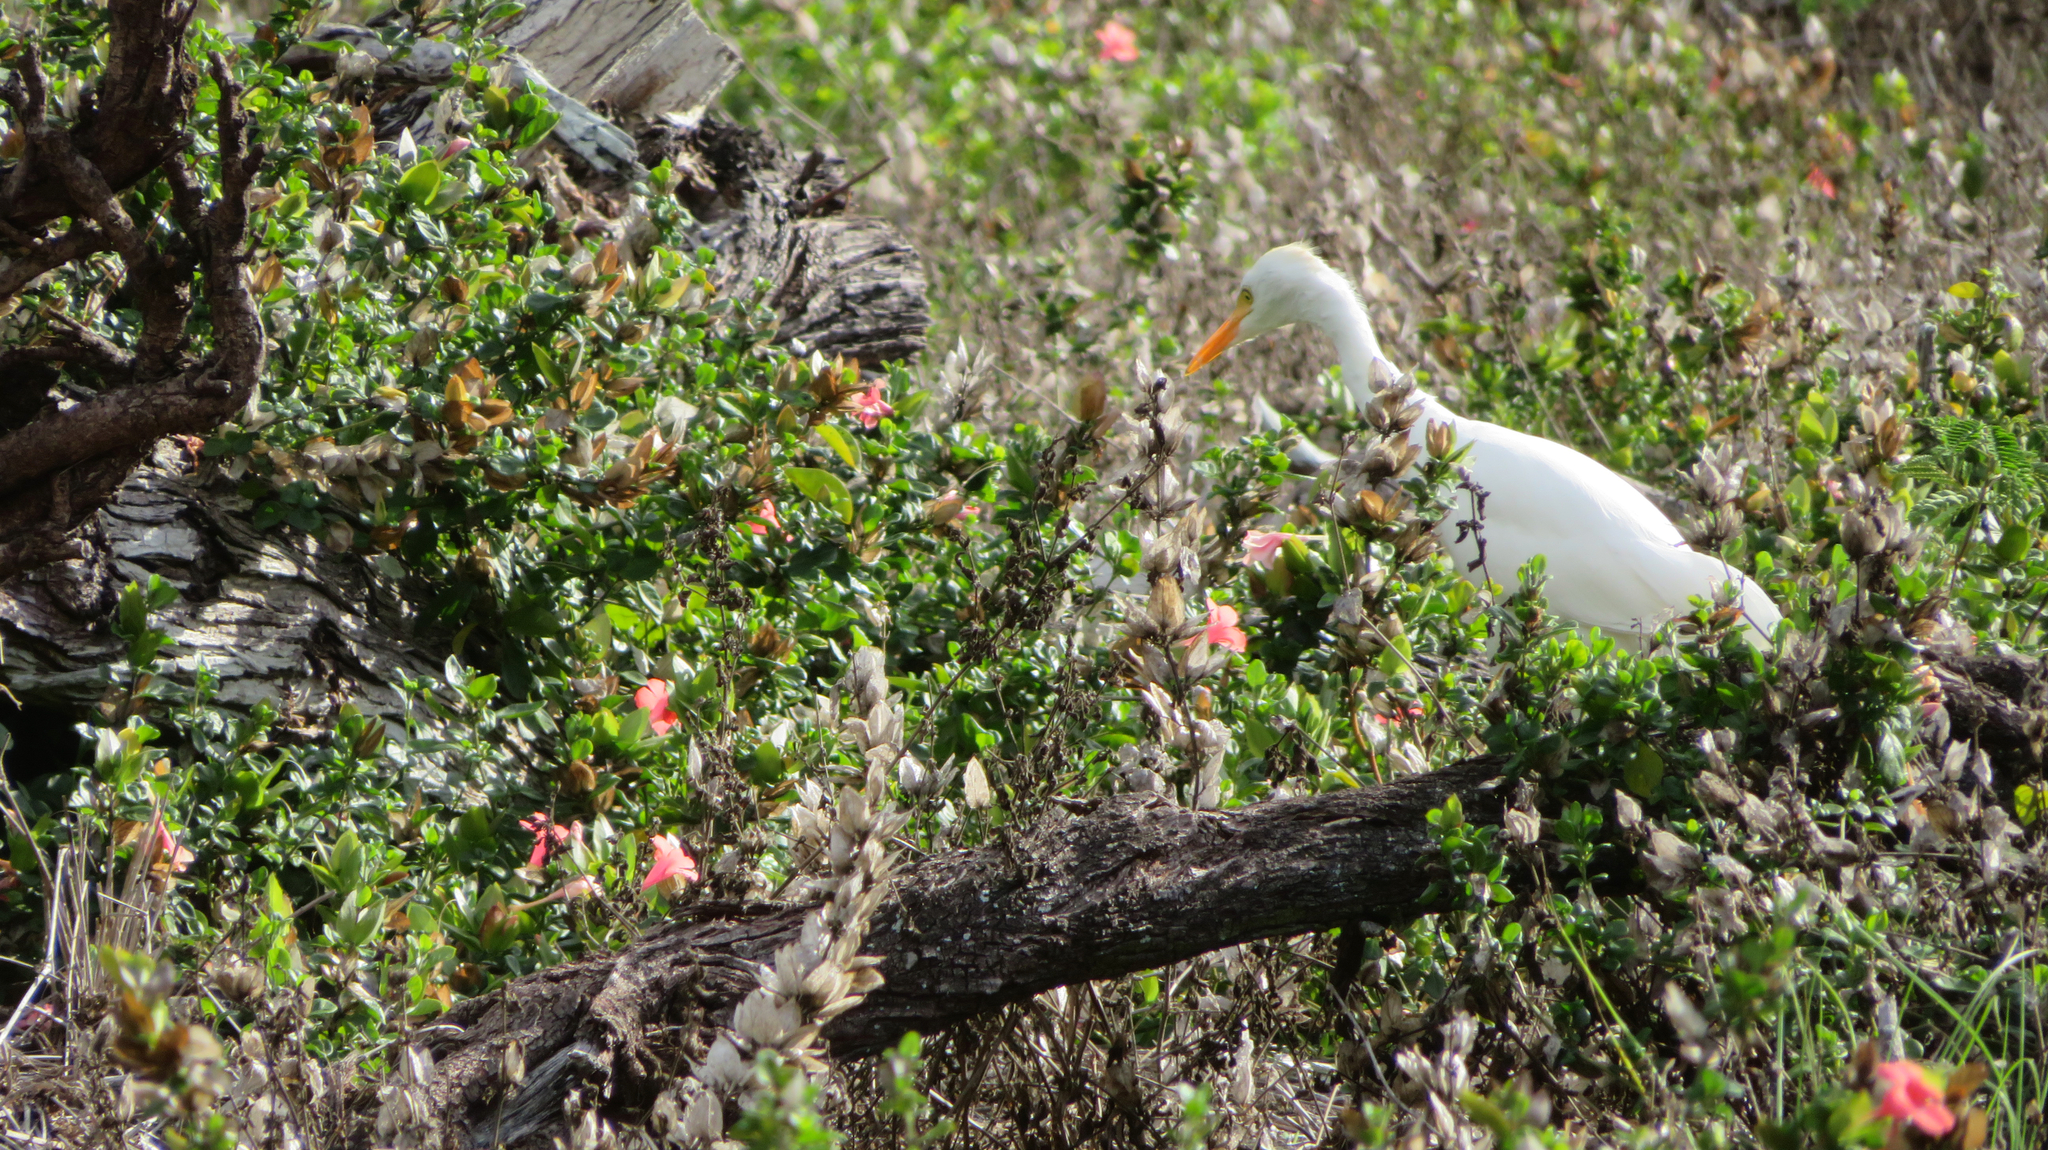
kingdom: Animalia
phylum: Chordata
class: Aves
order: Pelecaniformes
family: Ardeidae
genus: Bubulcus
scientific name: Bubulcus ibis
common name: Cattle egret
